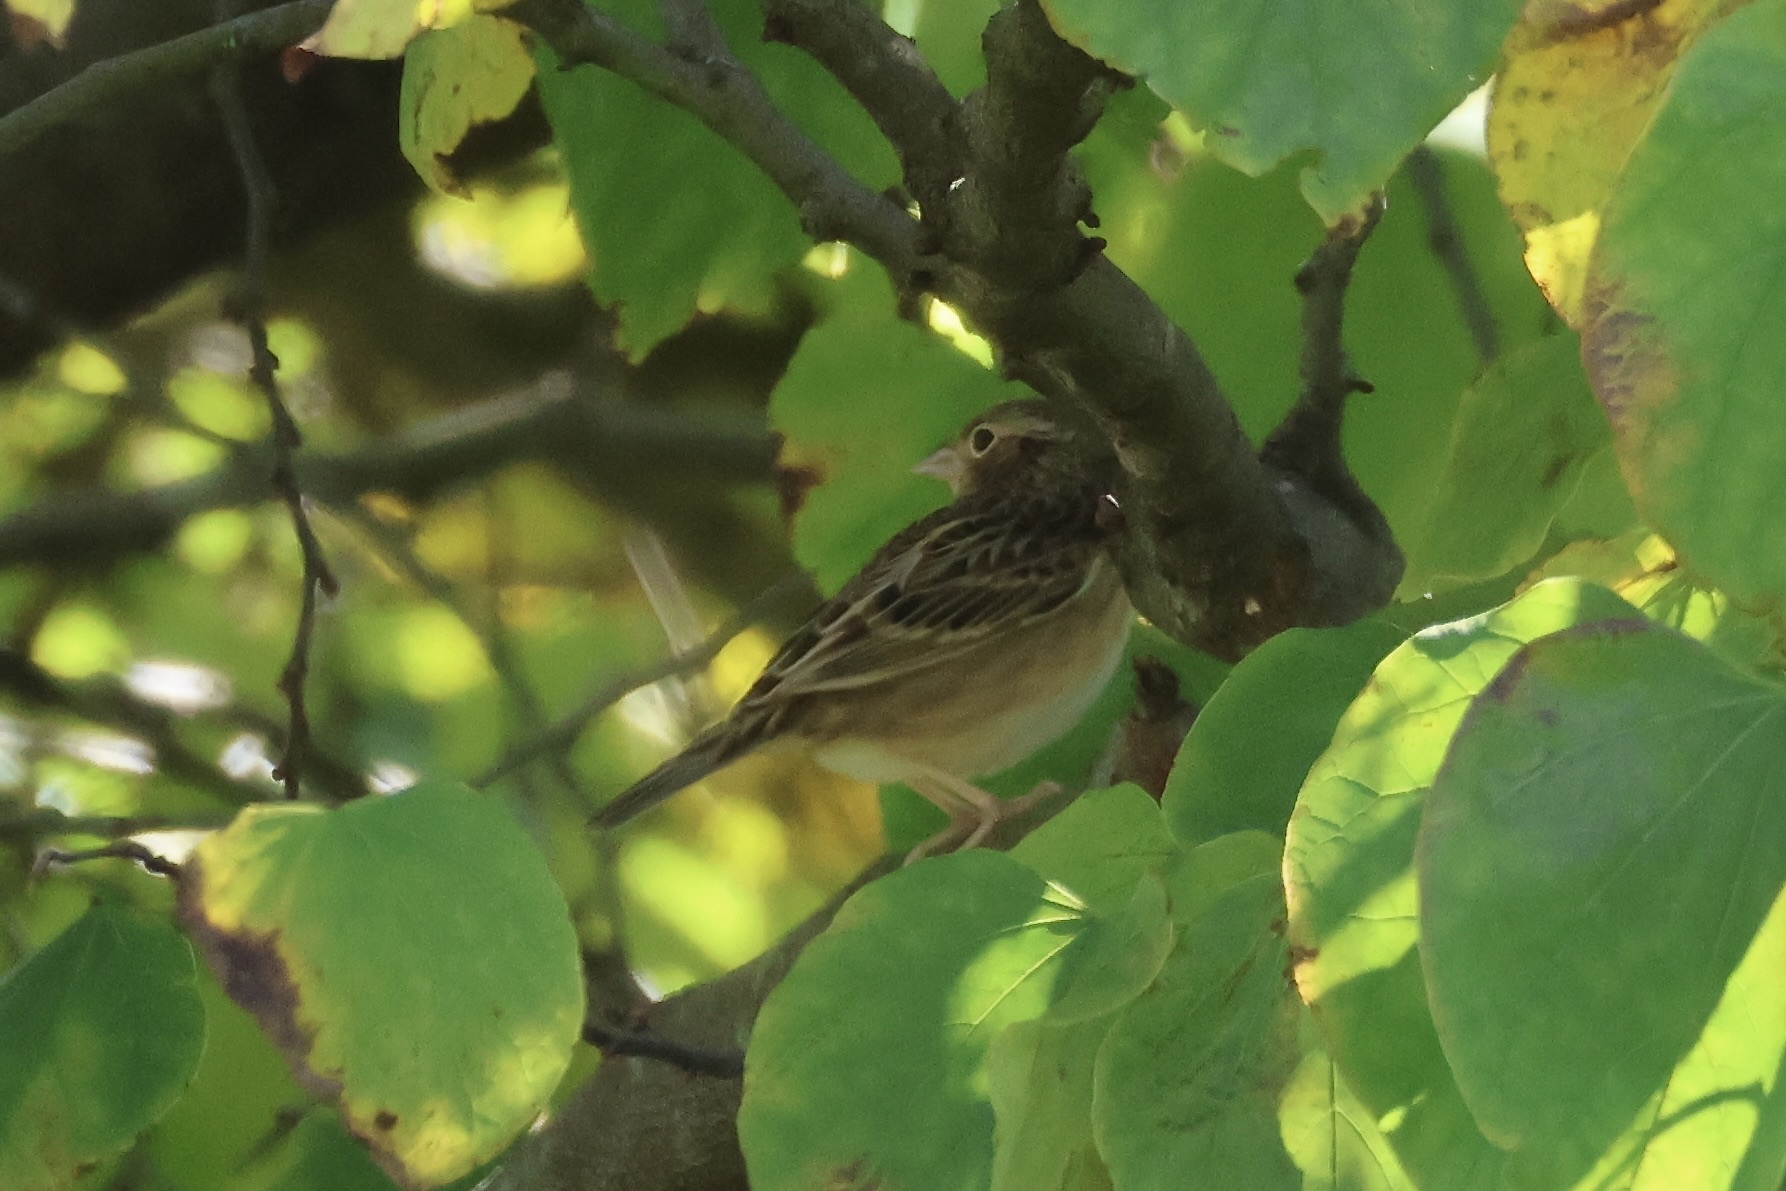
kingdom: Animalia
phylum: Chordata
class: Aves
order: Passeriformes
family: Passerellidae
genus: Ammodramus
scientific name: Ammodramus savannarum
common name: Grasshopper sparrow
